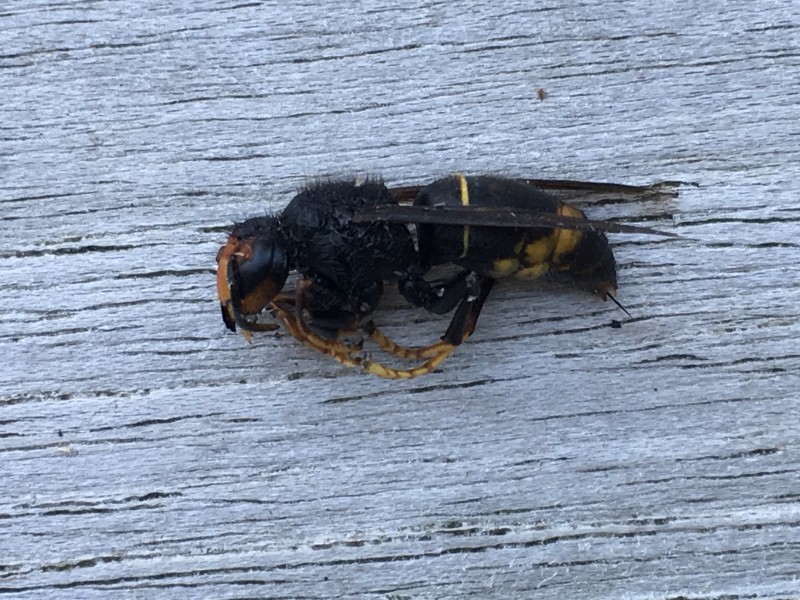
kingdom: Animalia
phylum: Arthropoda
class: Insecta
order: Hymenoptera
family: Vespidae
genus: Vespa
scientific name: Vespa velutina
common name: Asian hornet
